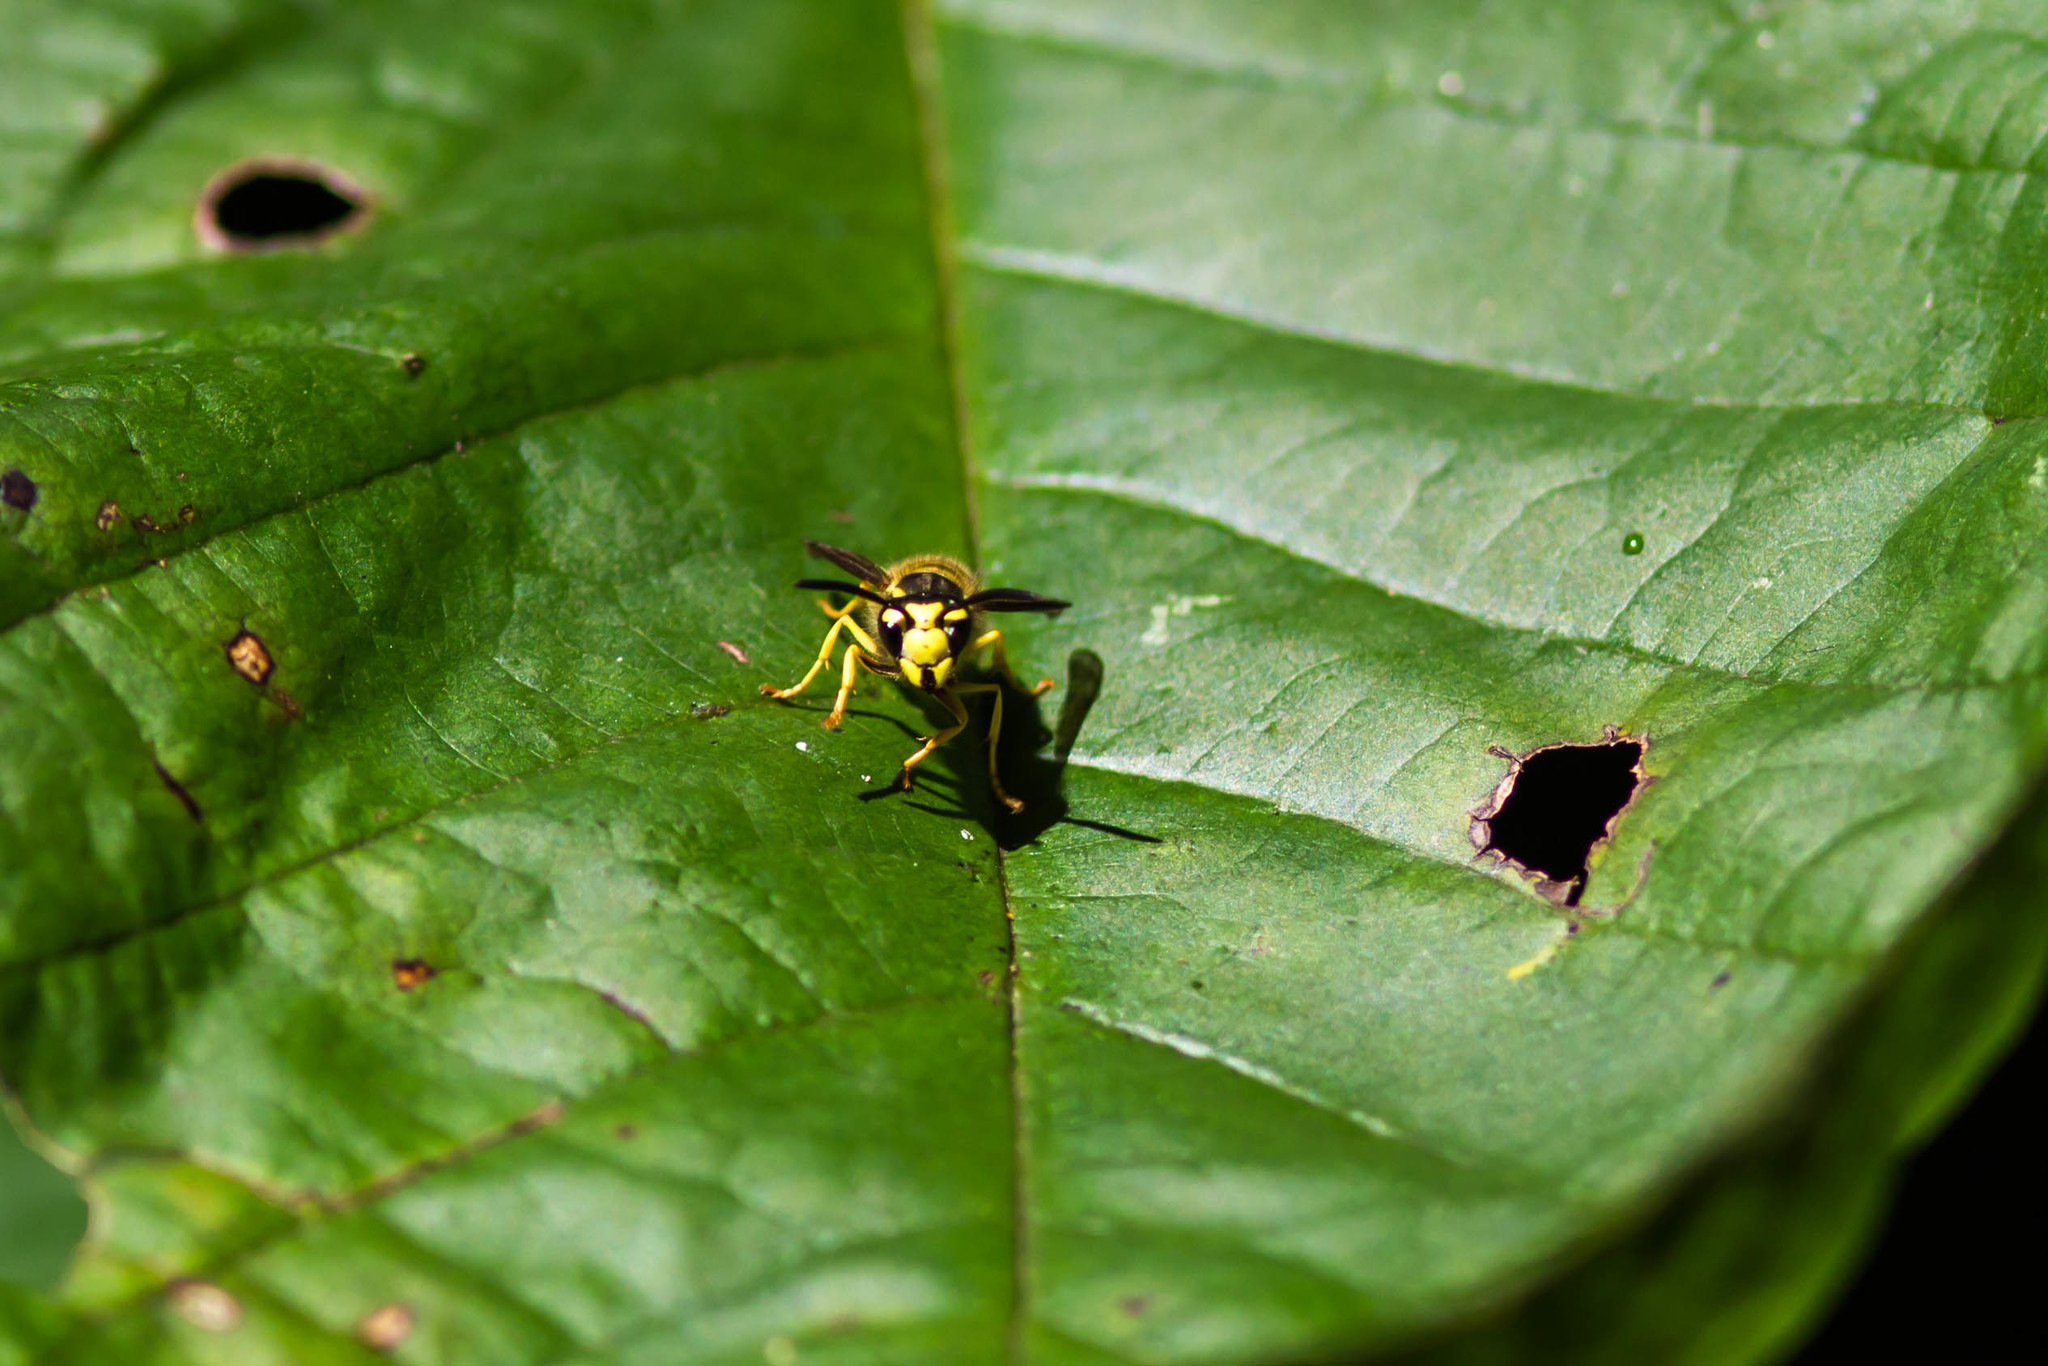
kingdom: Animalia
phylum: Arthropoda
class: Insecta
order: Hymenoptera
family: Vespidae
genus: Vespula
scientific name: Vespula maculifrons
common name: Eastern yellowjacket
